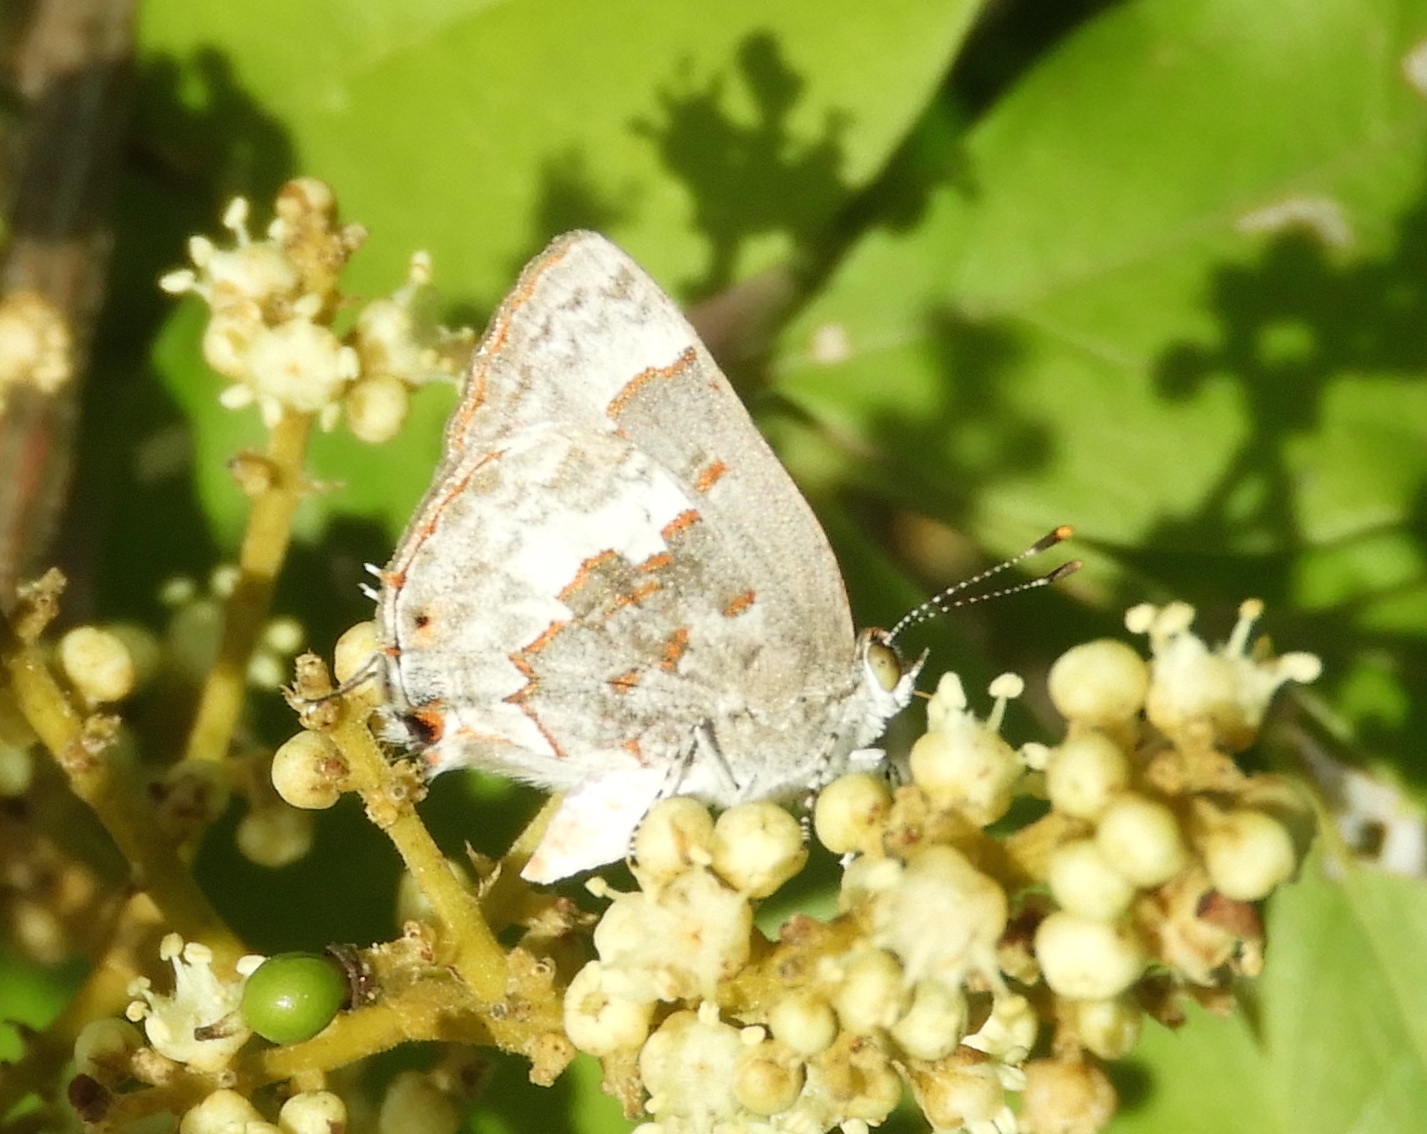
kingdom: Animalia
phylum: Arthropoda
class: Insecta
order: Lepidoptera
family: Lycaenidae
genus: Ministrymon
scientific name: Ministrymon clytie
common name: Clytie ministreak
